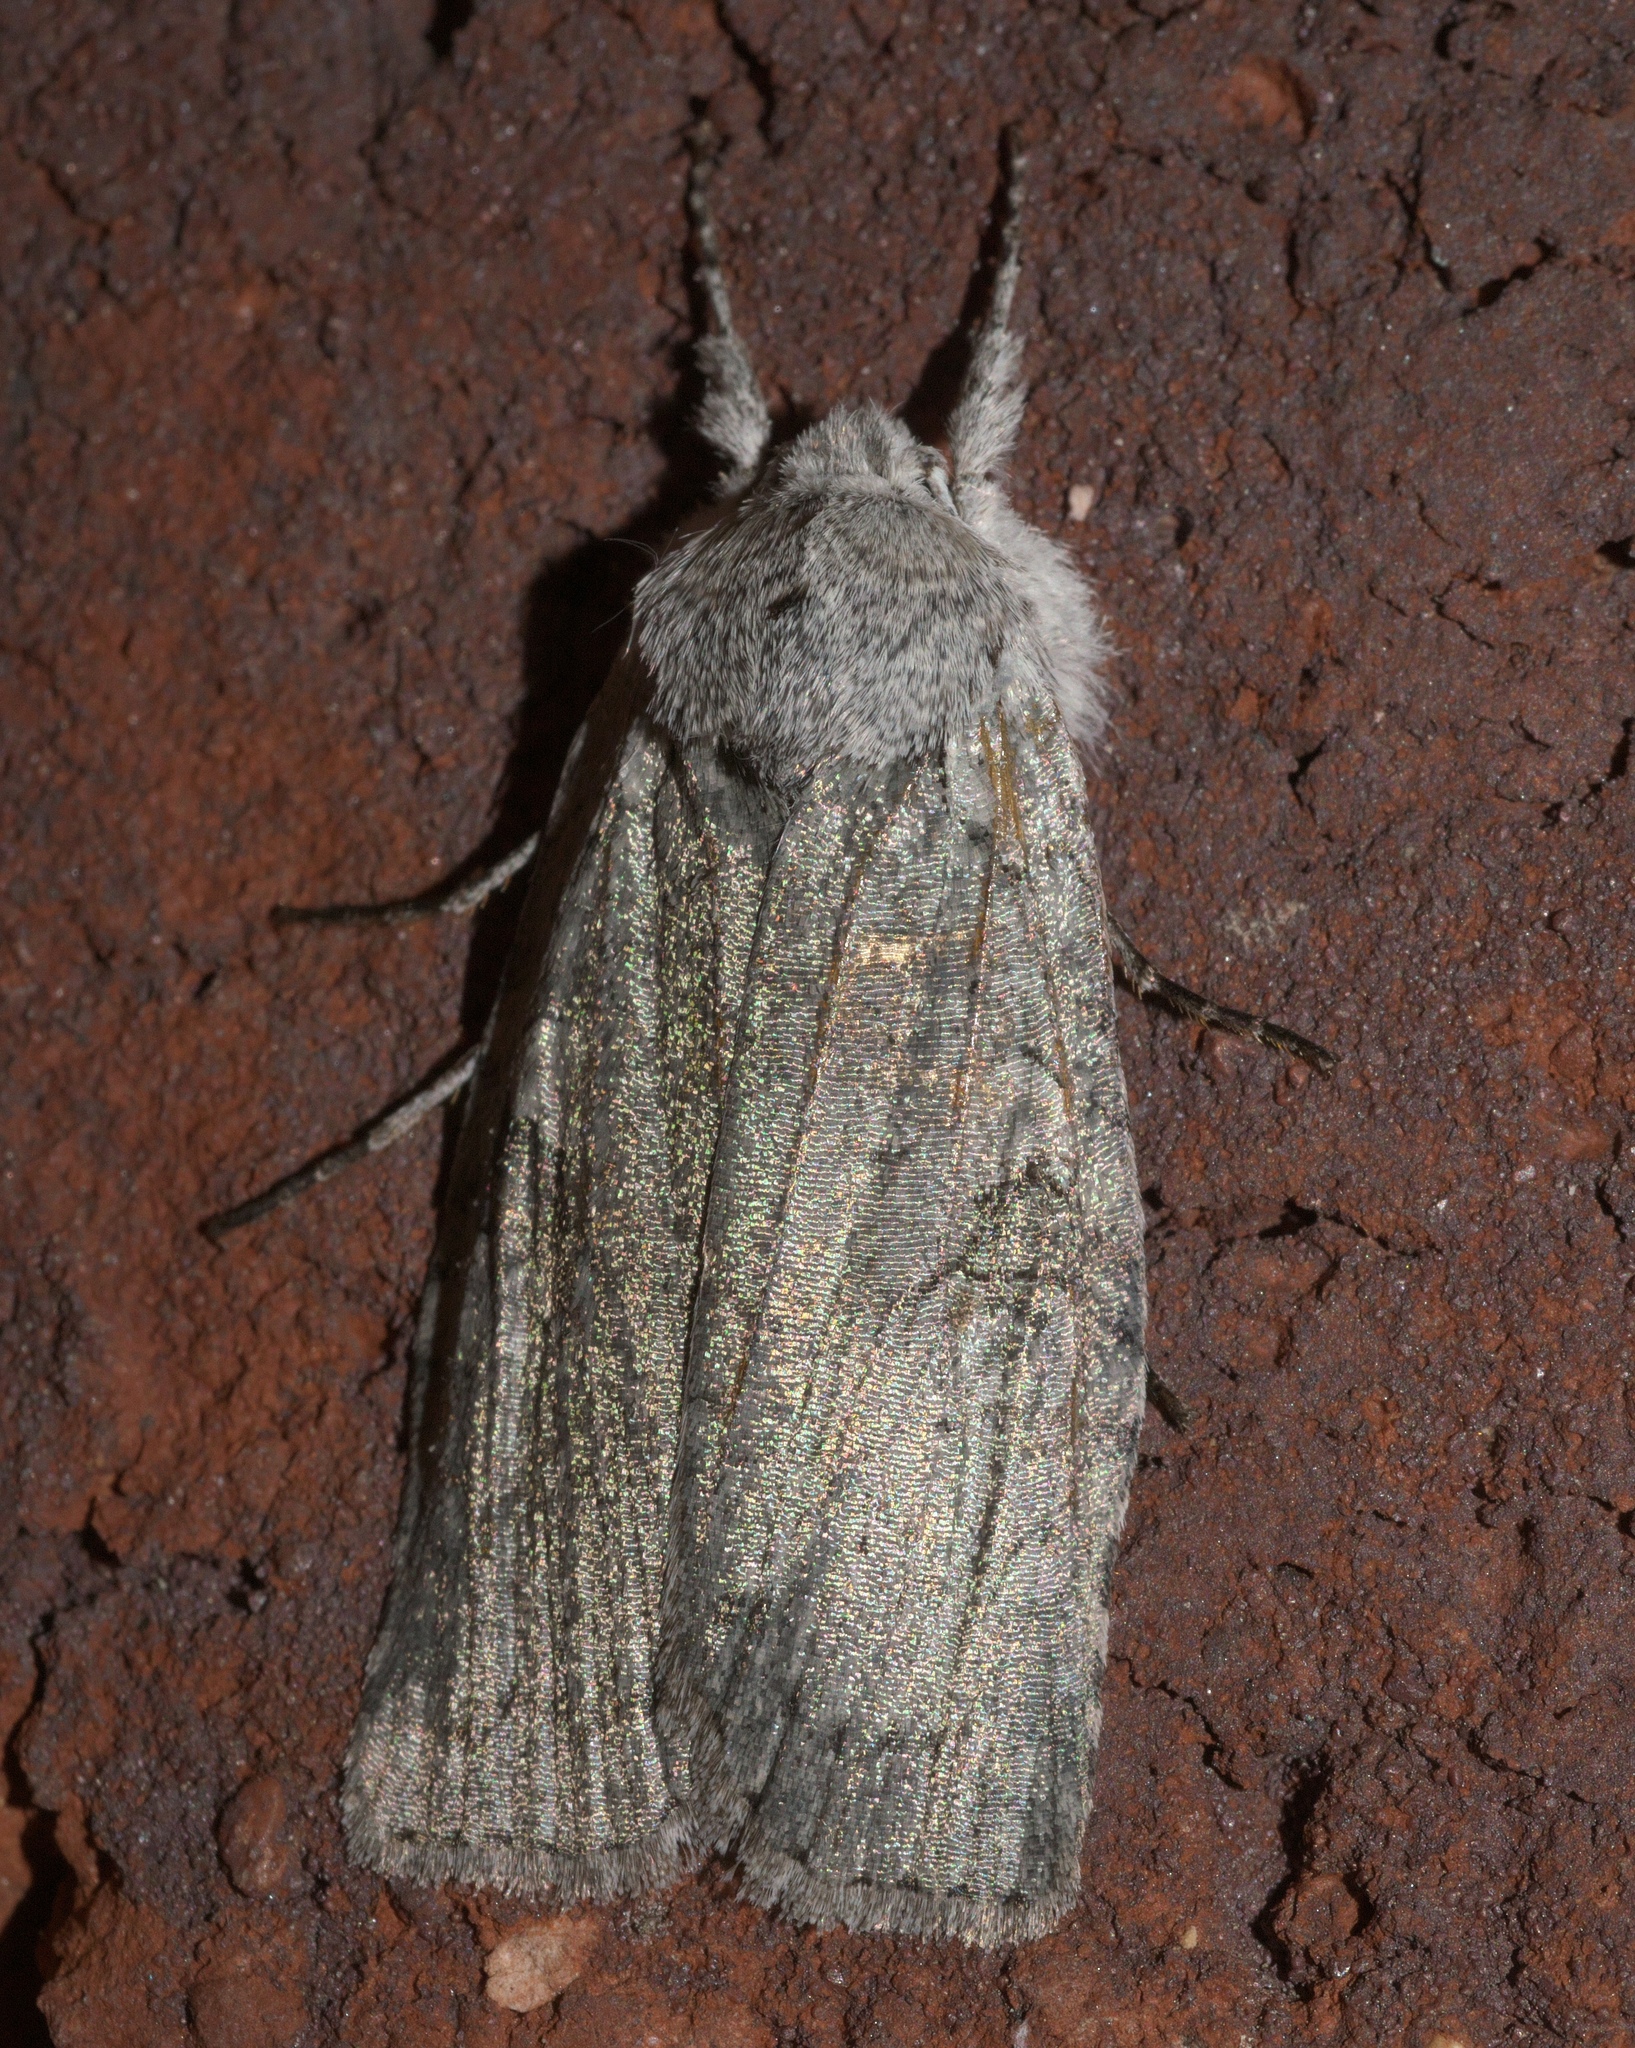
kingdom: Animalia
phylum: Arthropoda
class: Insecta
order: Lepidoptera
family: Noctuidae
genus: Lithophane
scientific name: Lithophane viridipallens
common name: Pale greeen pinion moth
